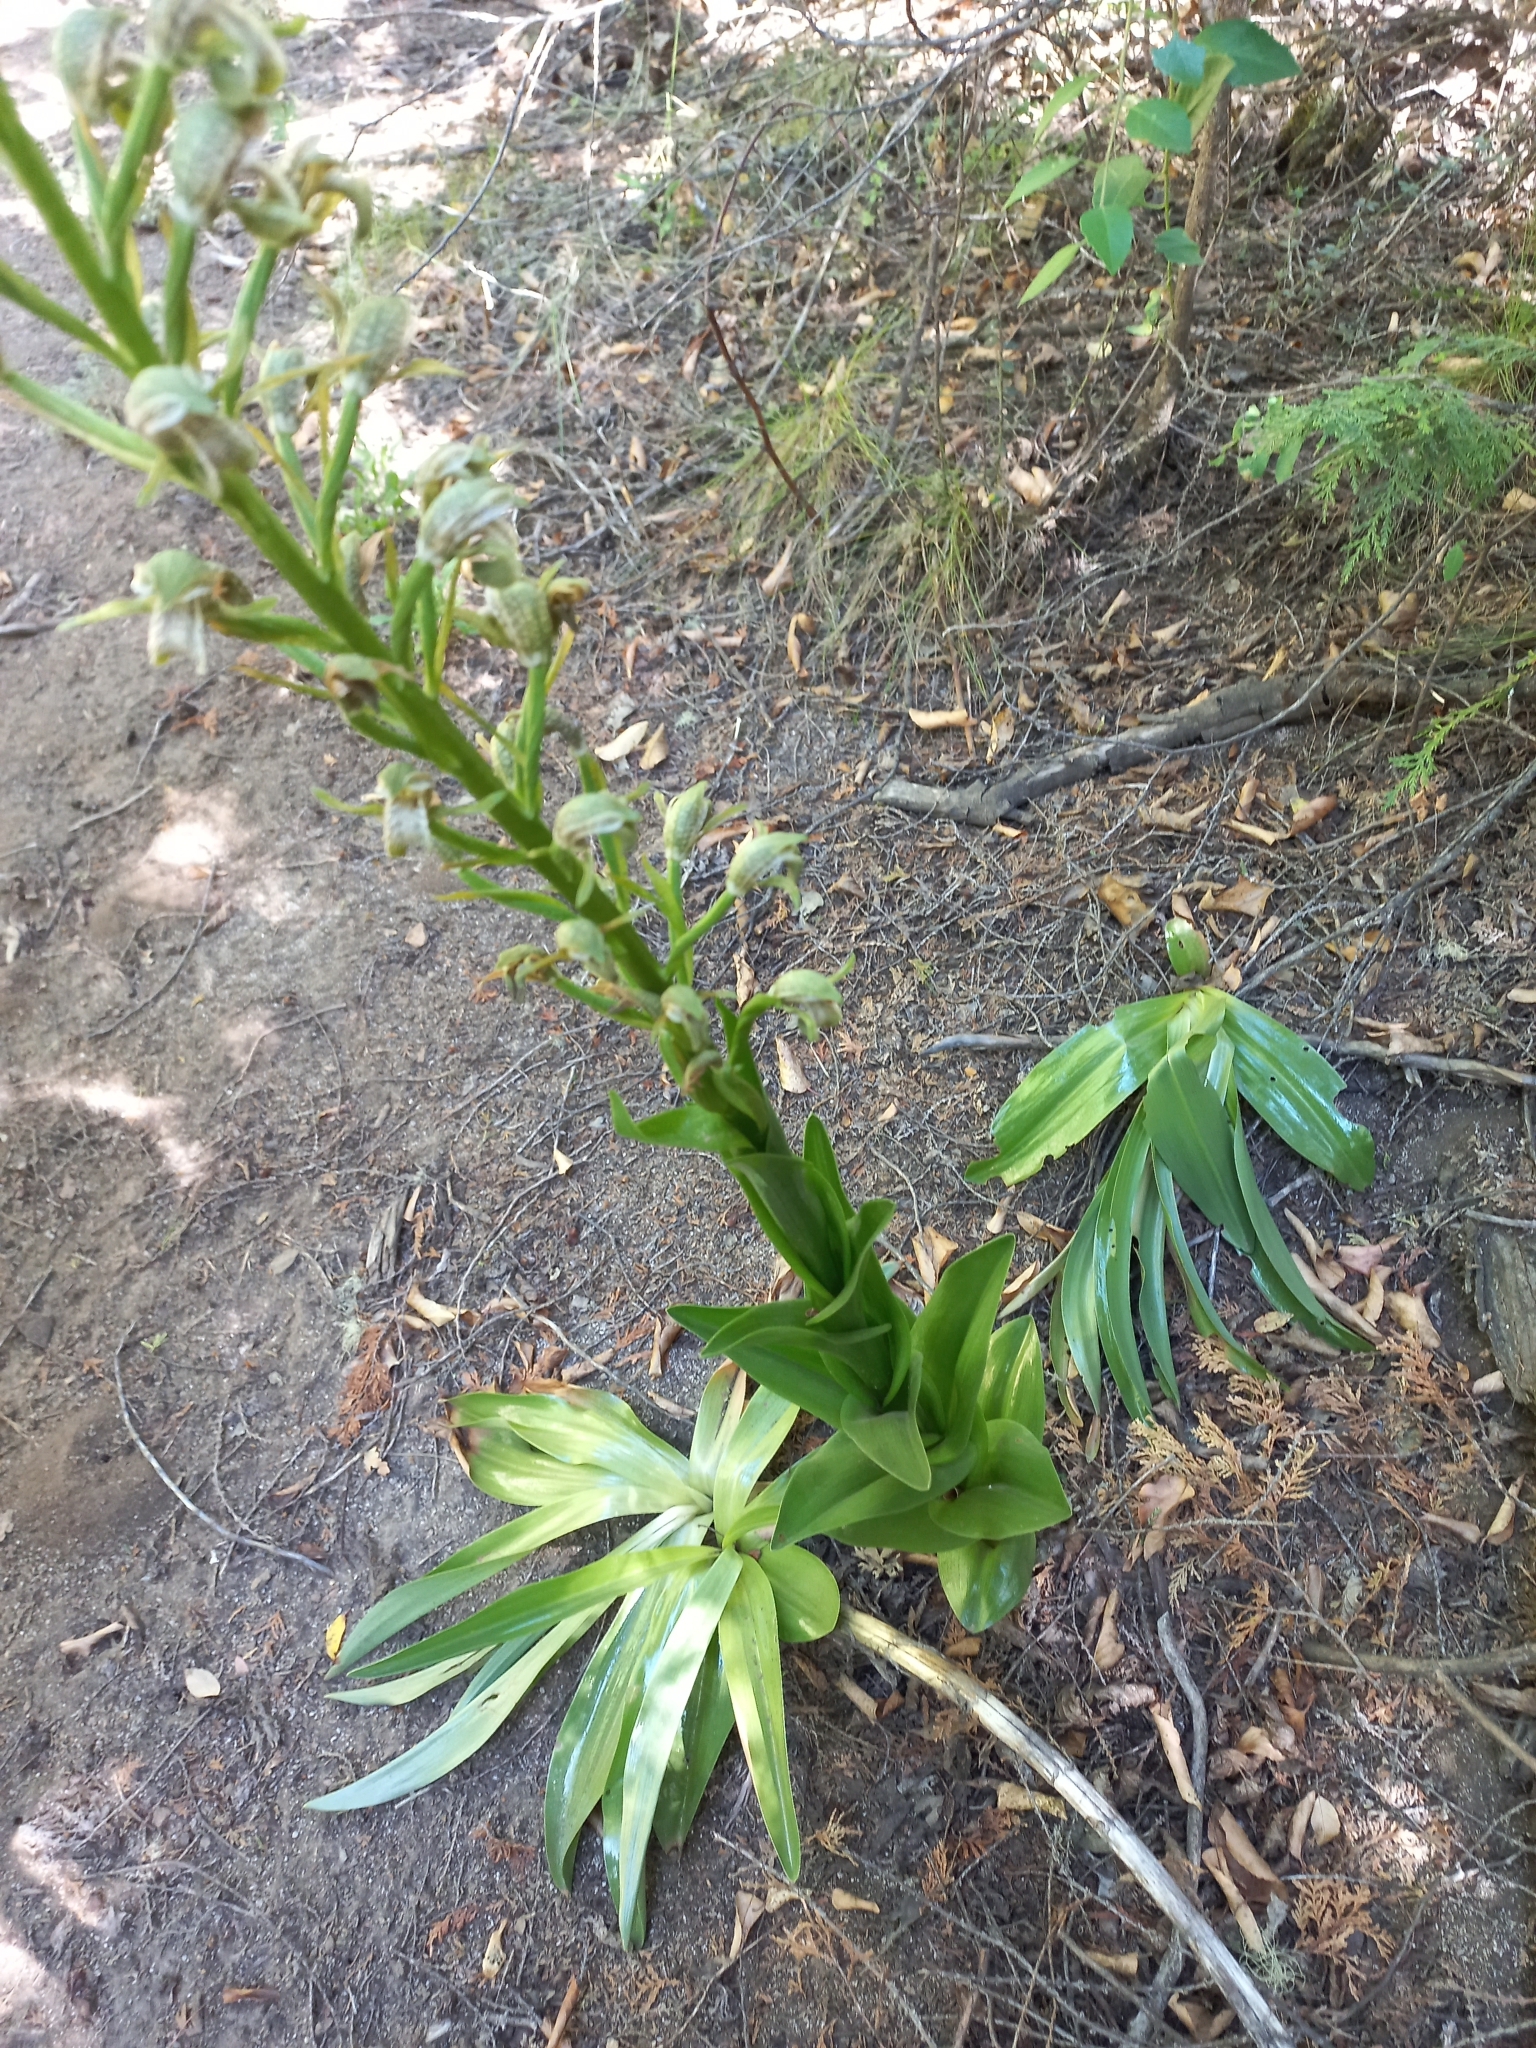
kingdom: Plantae
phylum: Tracheophyta
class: Liliopsida
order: Asparagales
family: Orchidaceae
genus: Chloraea
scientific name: Chloraea cylindrostachya
